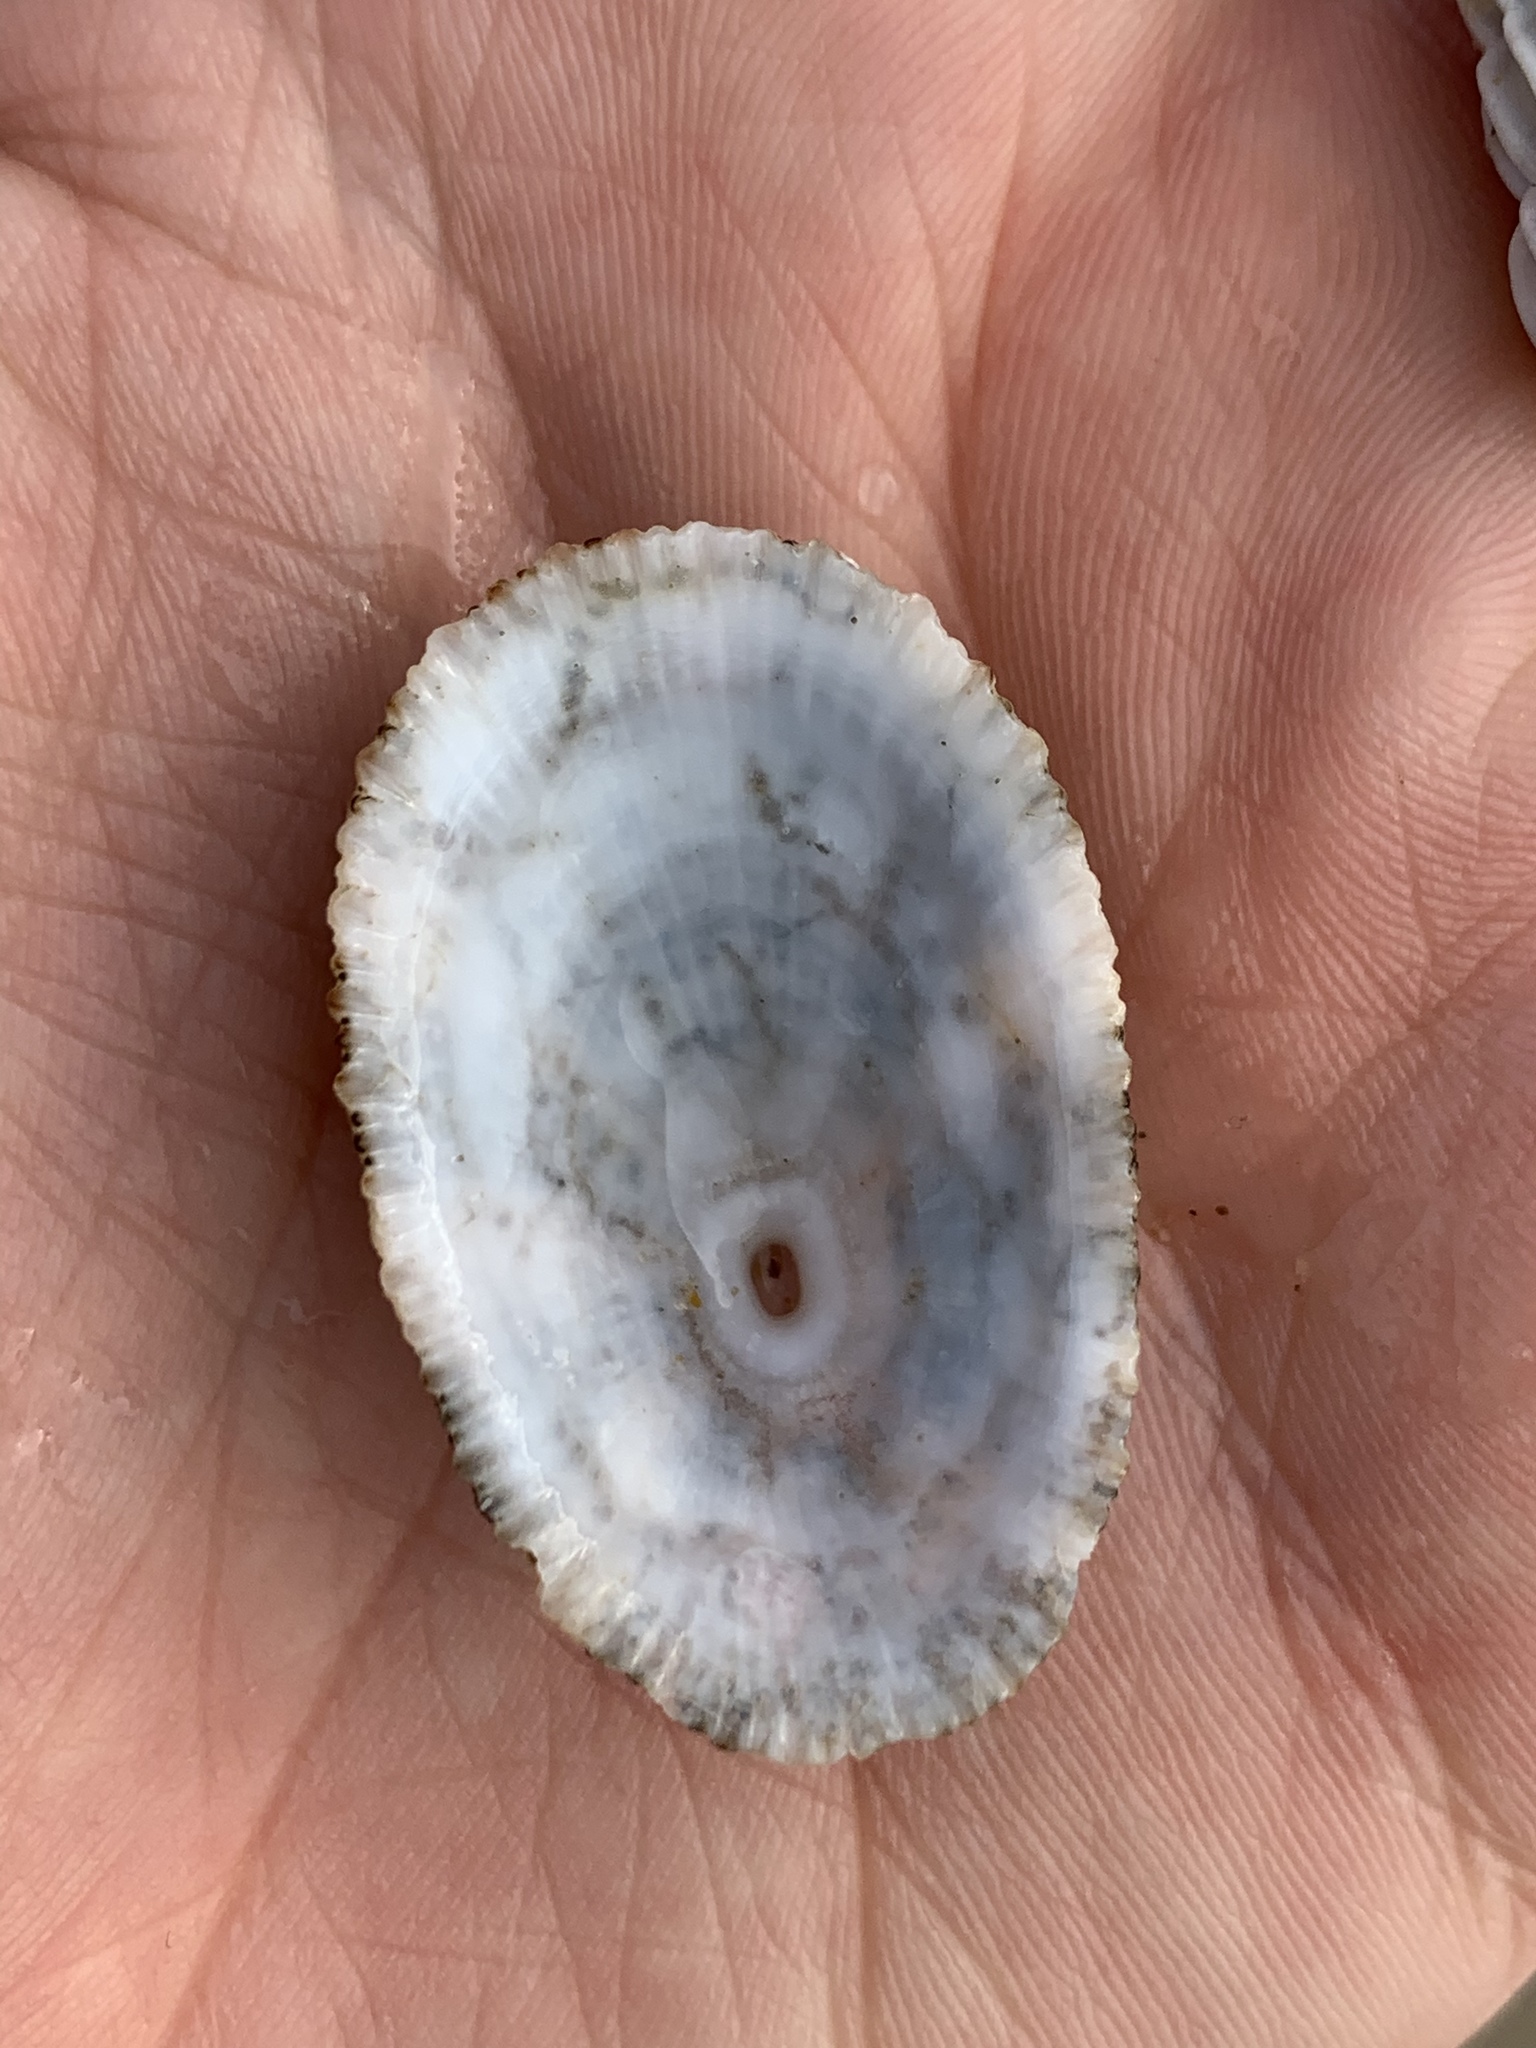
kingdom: Animalia
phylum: Mollusca
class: Gastropoda
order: Lepetellida
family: Fissurellidae
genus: Diodora
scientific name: Diodora lineata
